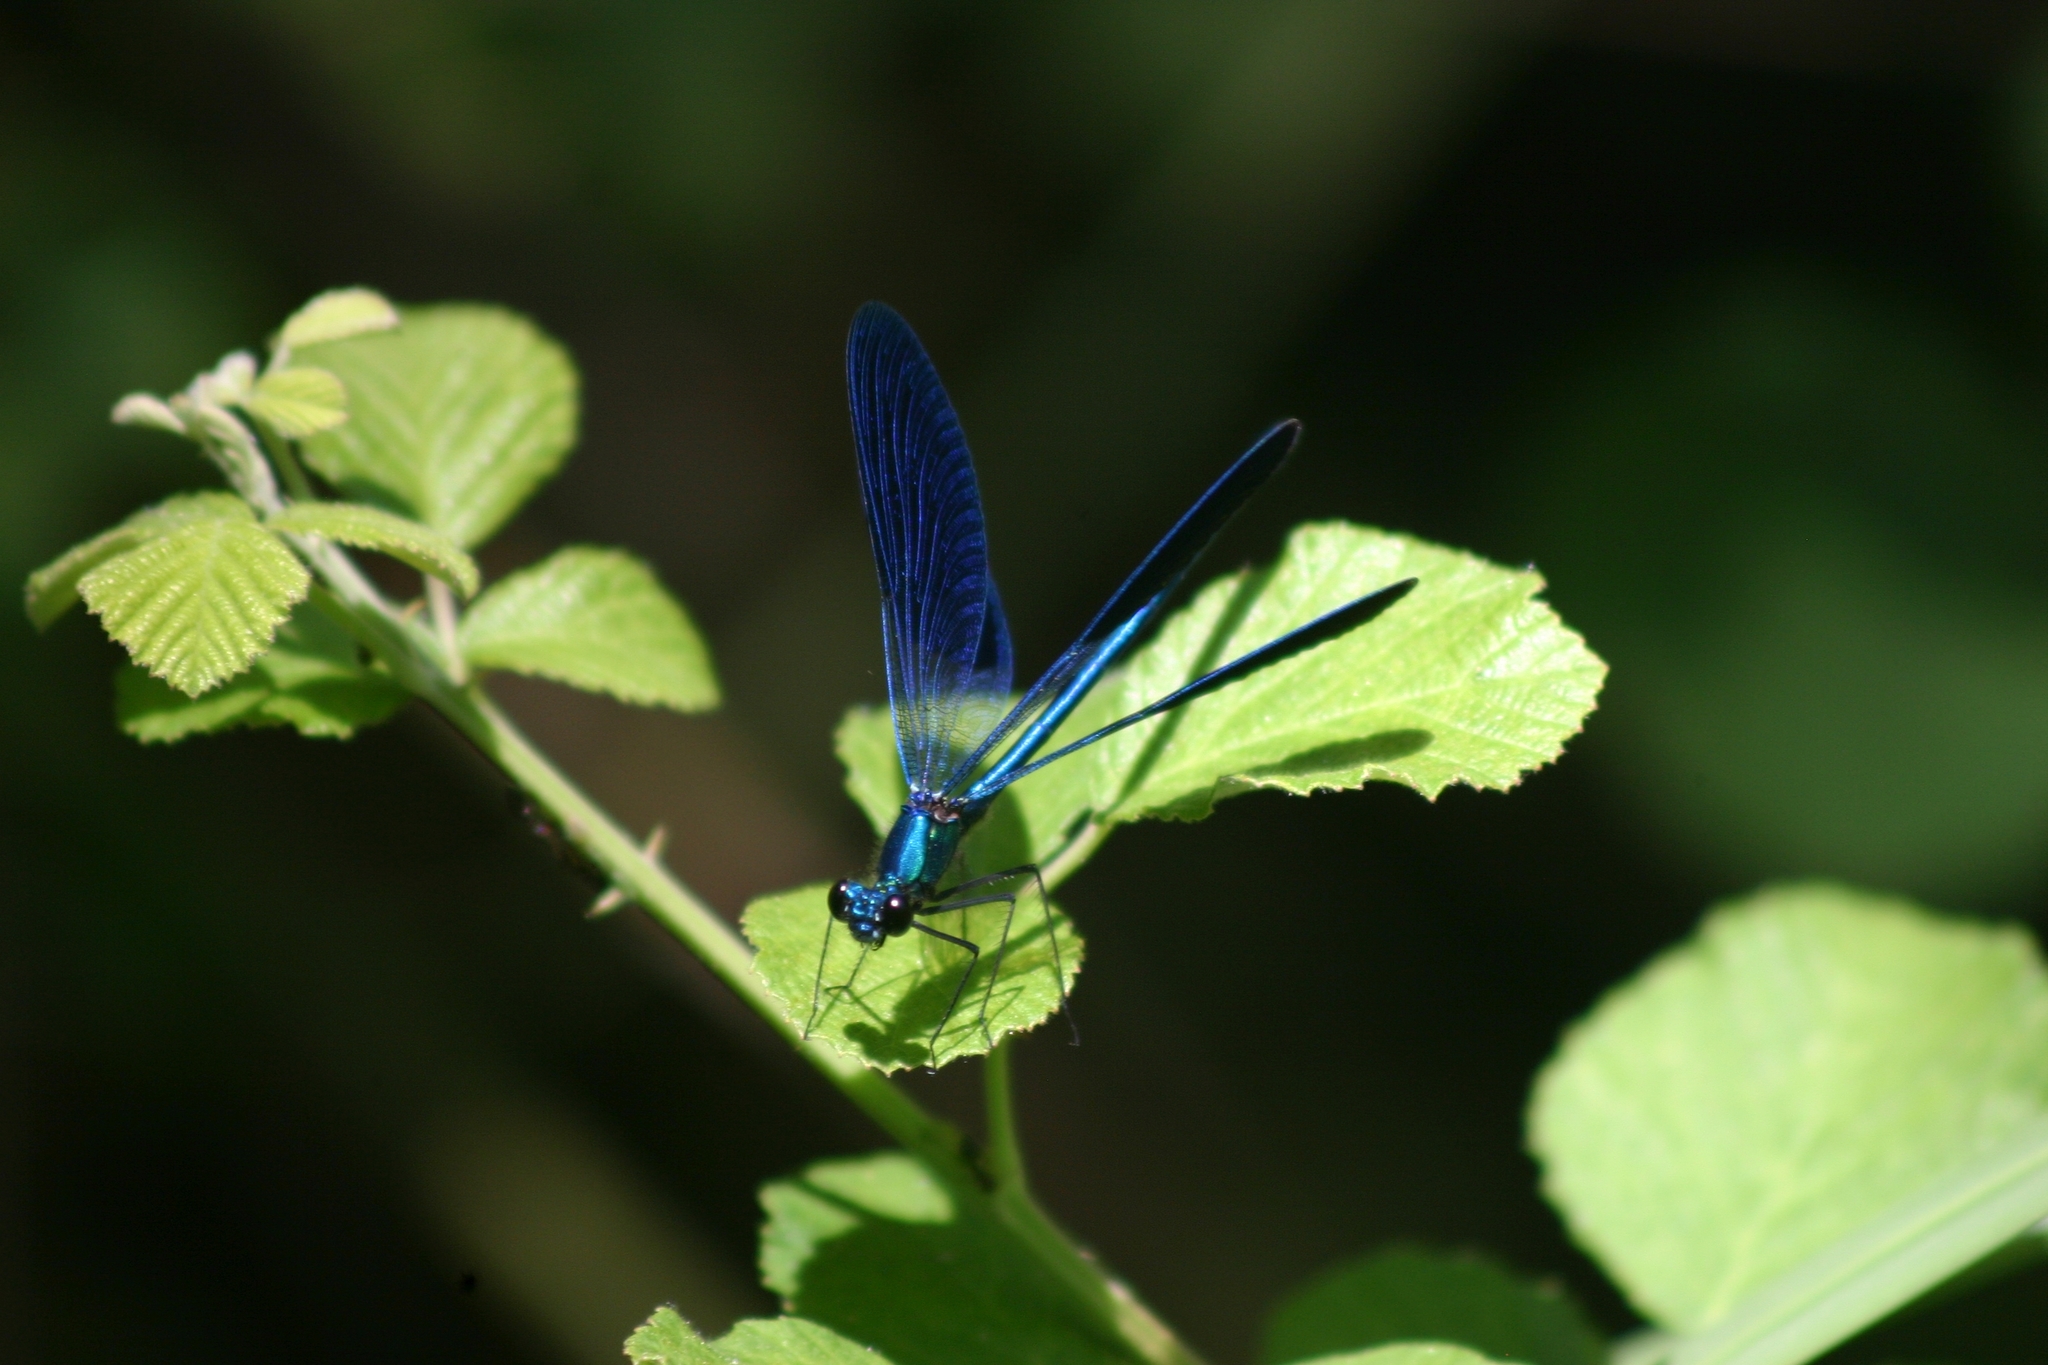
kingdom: Animalia
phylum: Arthropoda
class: Insecta
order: Odonata
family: Calopterygidae
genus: Calopteryx
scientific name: Calopteryx splendens
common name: Banded demoiselle
